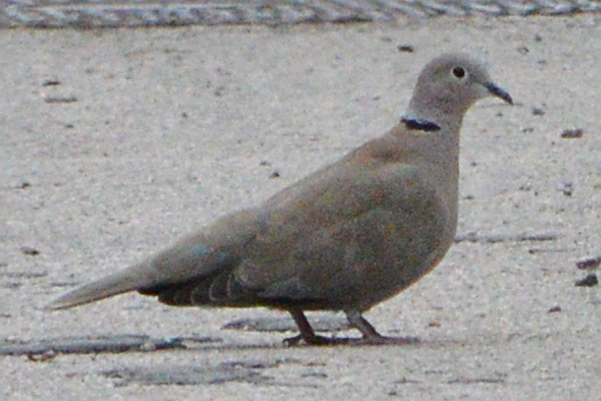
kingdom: Animalia
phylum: Chordata
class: Aves
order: Columbiformes
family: Columbidae
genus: Streptopelia
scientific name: Streptopelia decaocto
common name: Eurasian collared dove
